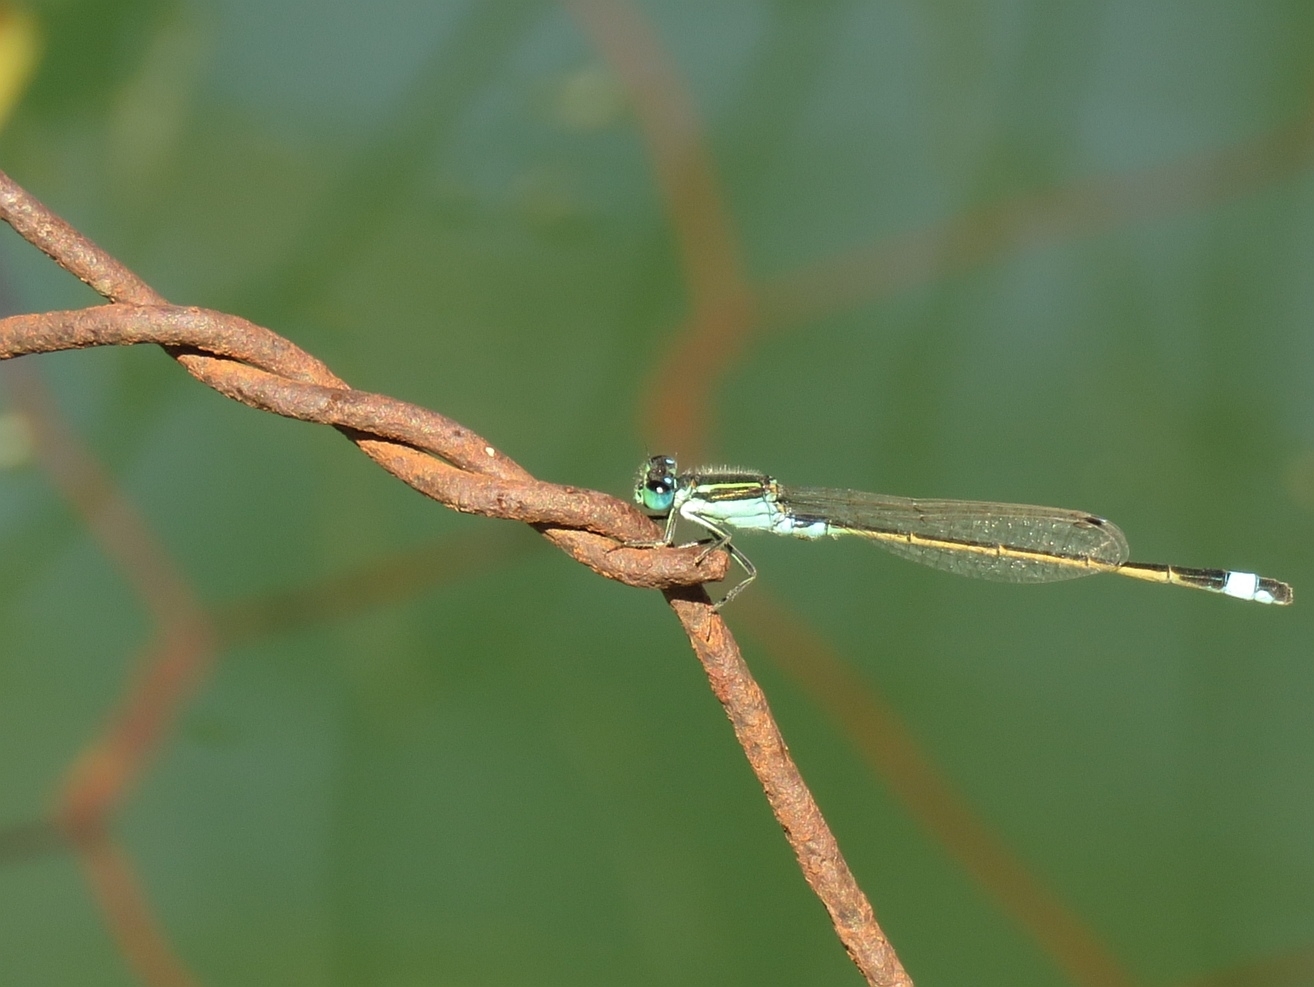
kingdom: Animalia
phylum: Arthropoda
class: Insecta
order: Odonata
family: Coenagrionidae
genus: Ischnura
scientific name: Ischnura senegalensis
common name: Tropical bluetail
